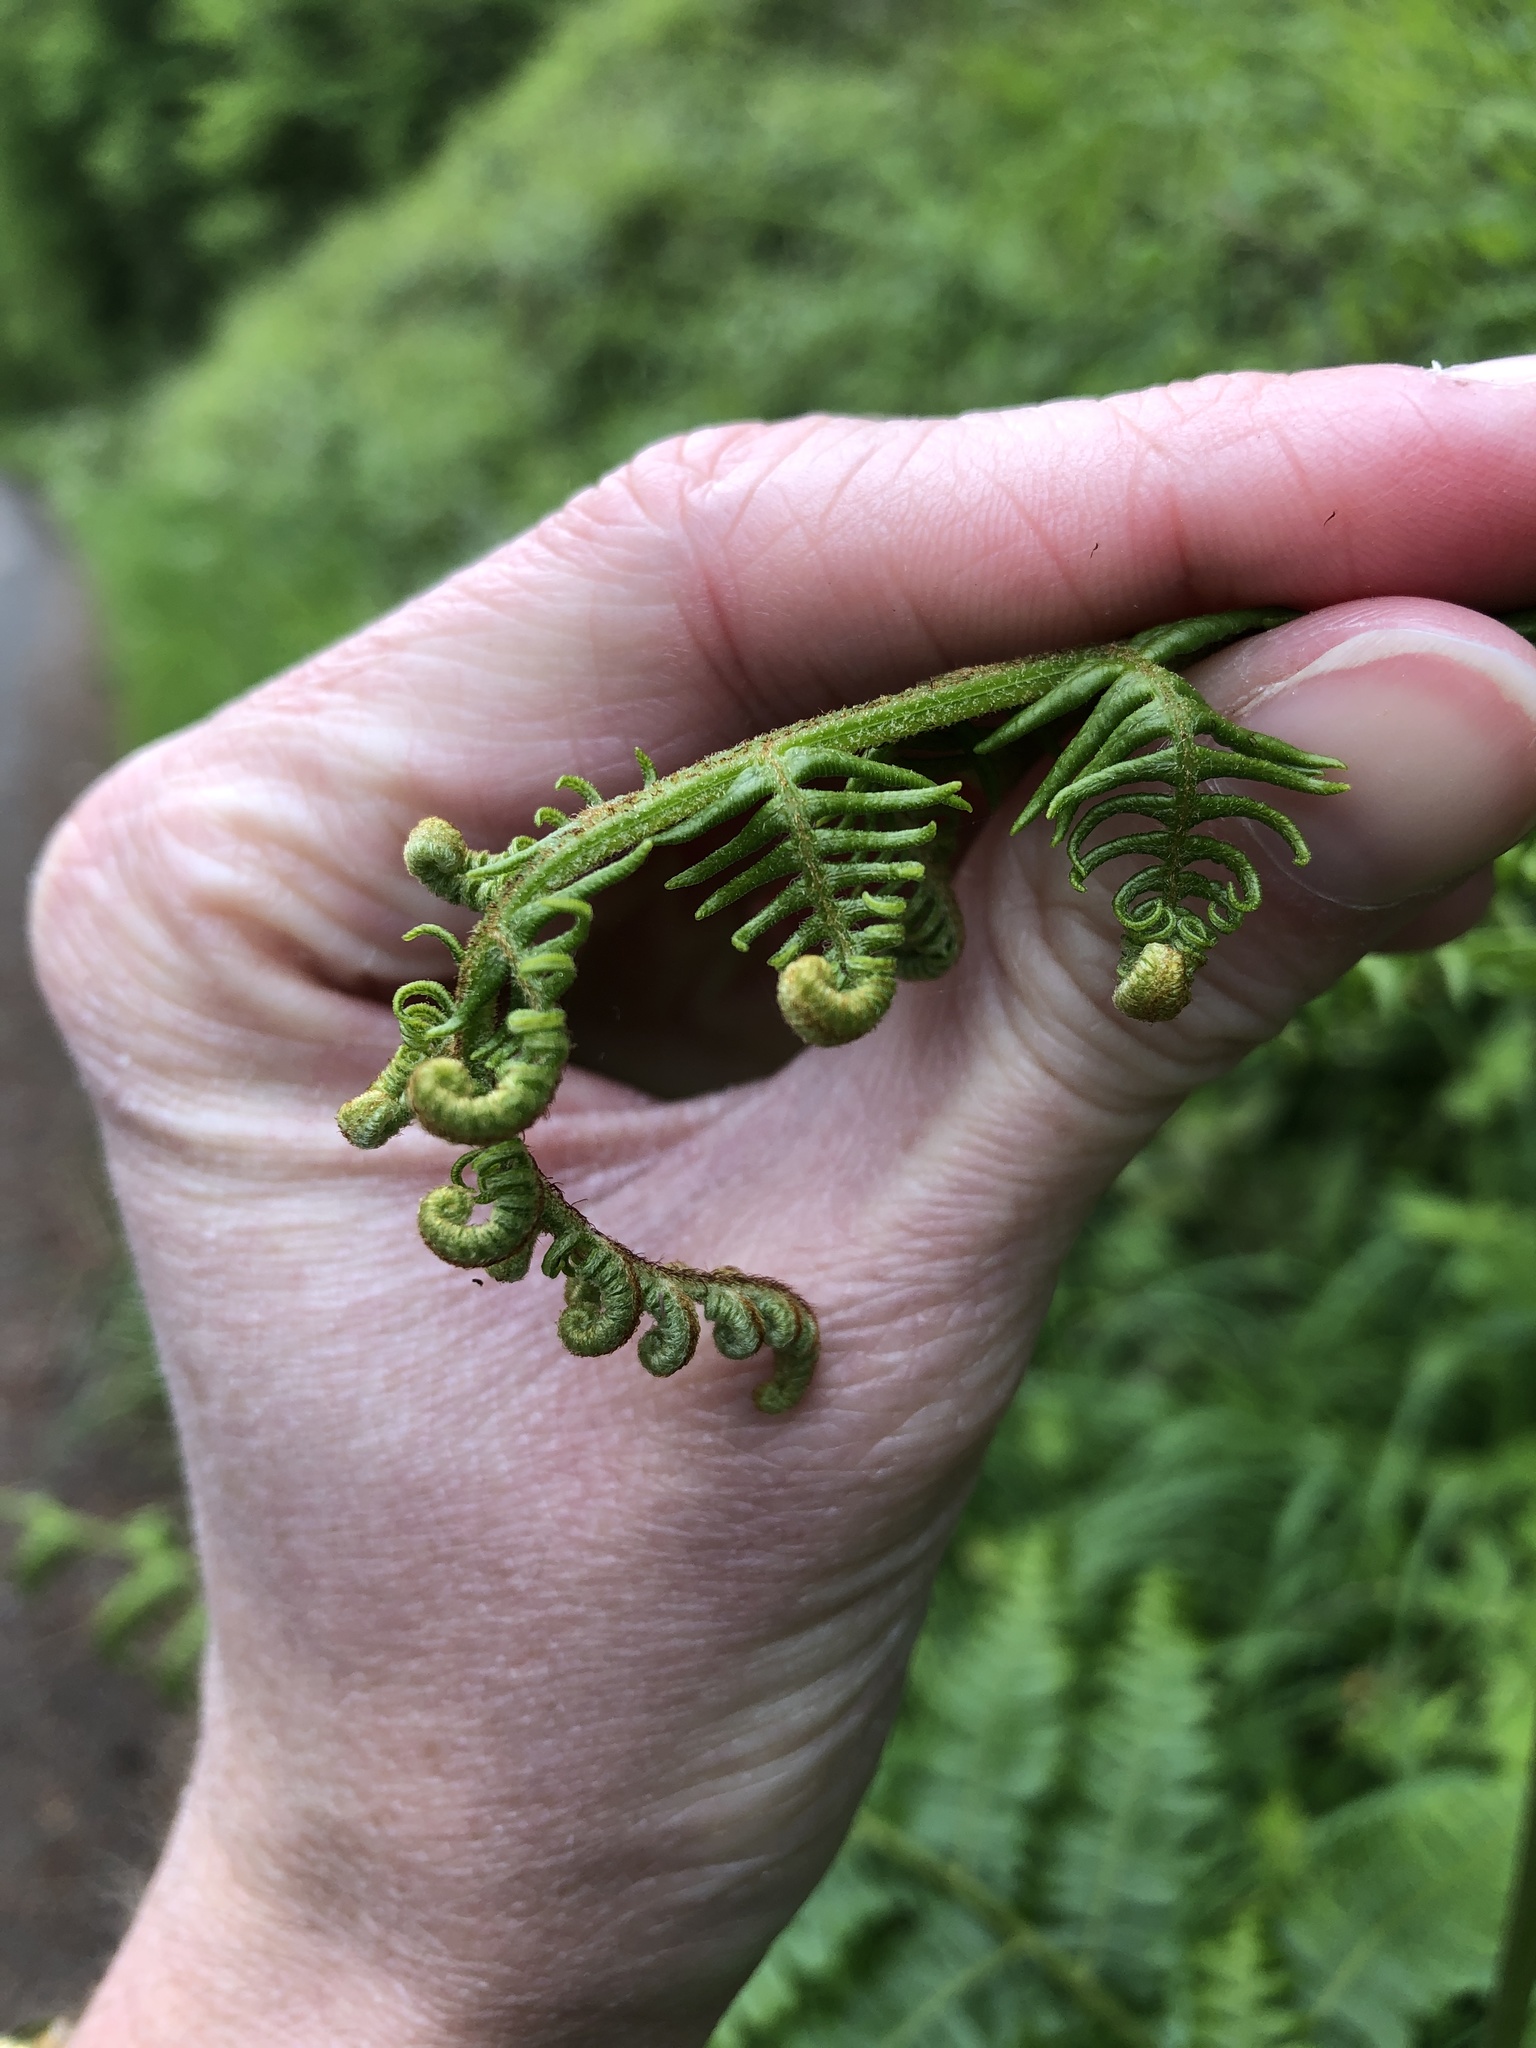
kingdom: Plantae
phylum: Tracheophyta
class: Polypodiopsida
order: Polypodiales
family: Dennstaedtiaceae
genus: Pteridium
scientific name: Pteridium aquilinum
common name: Bracken
